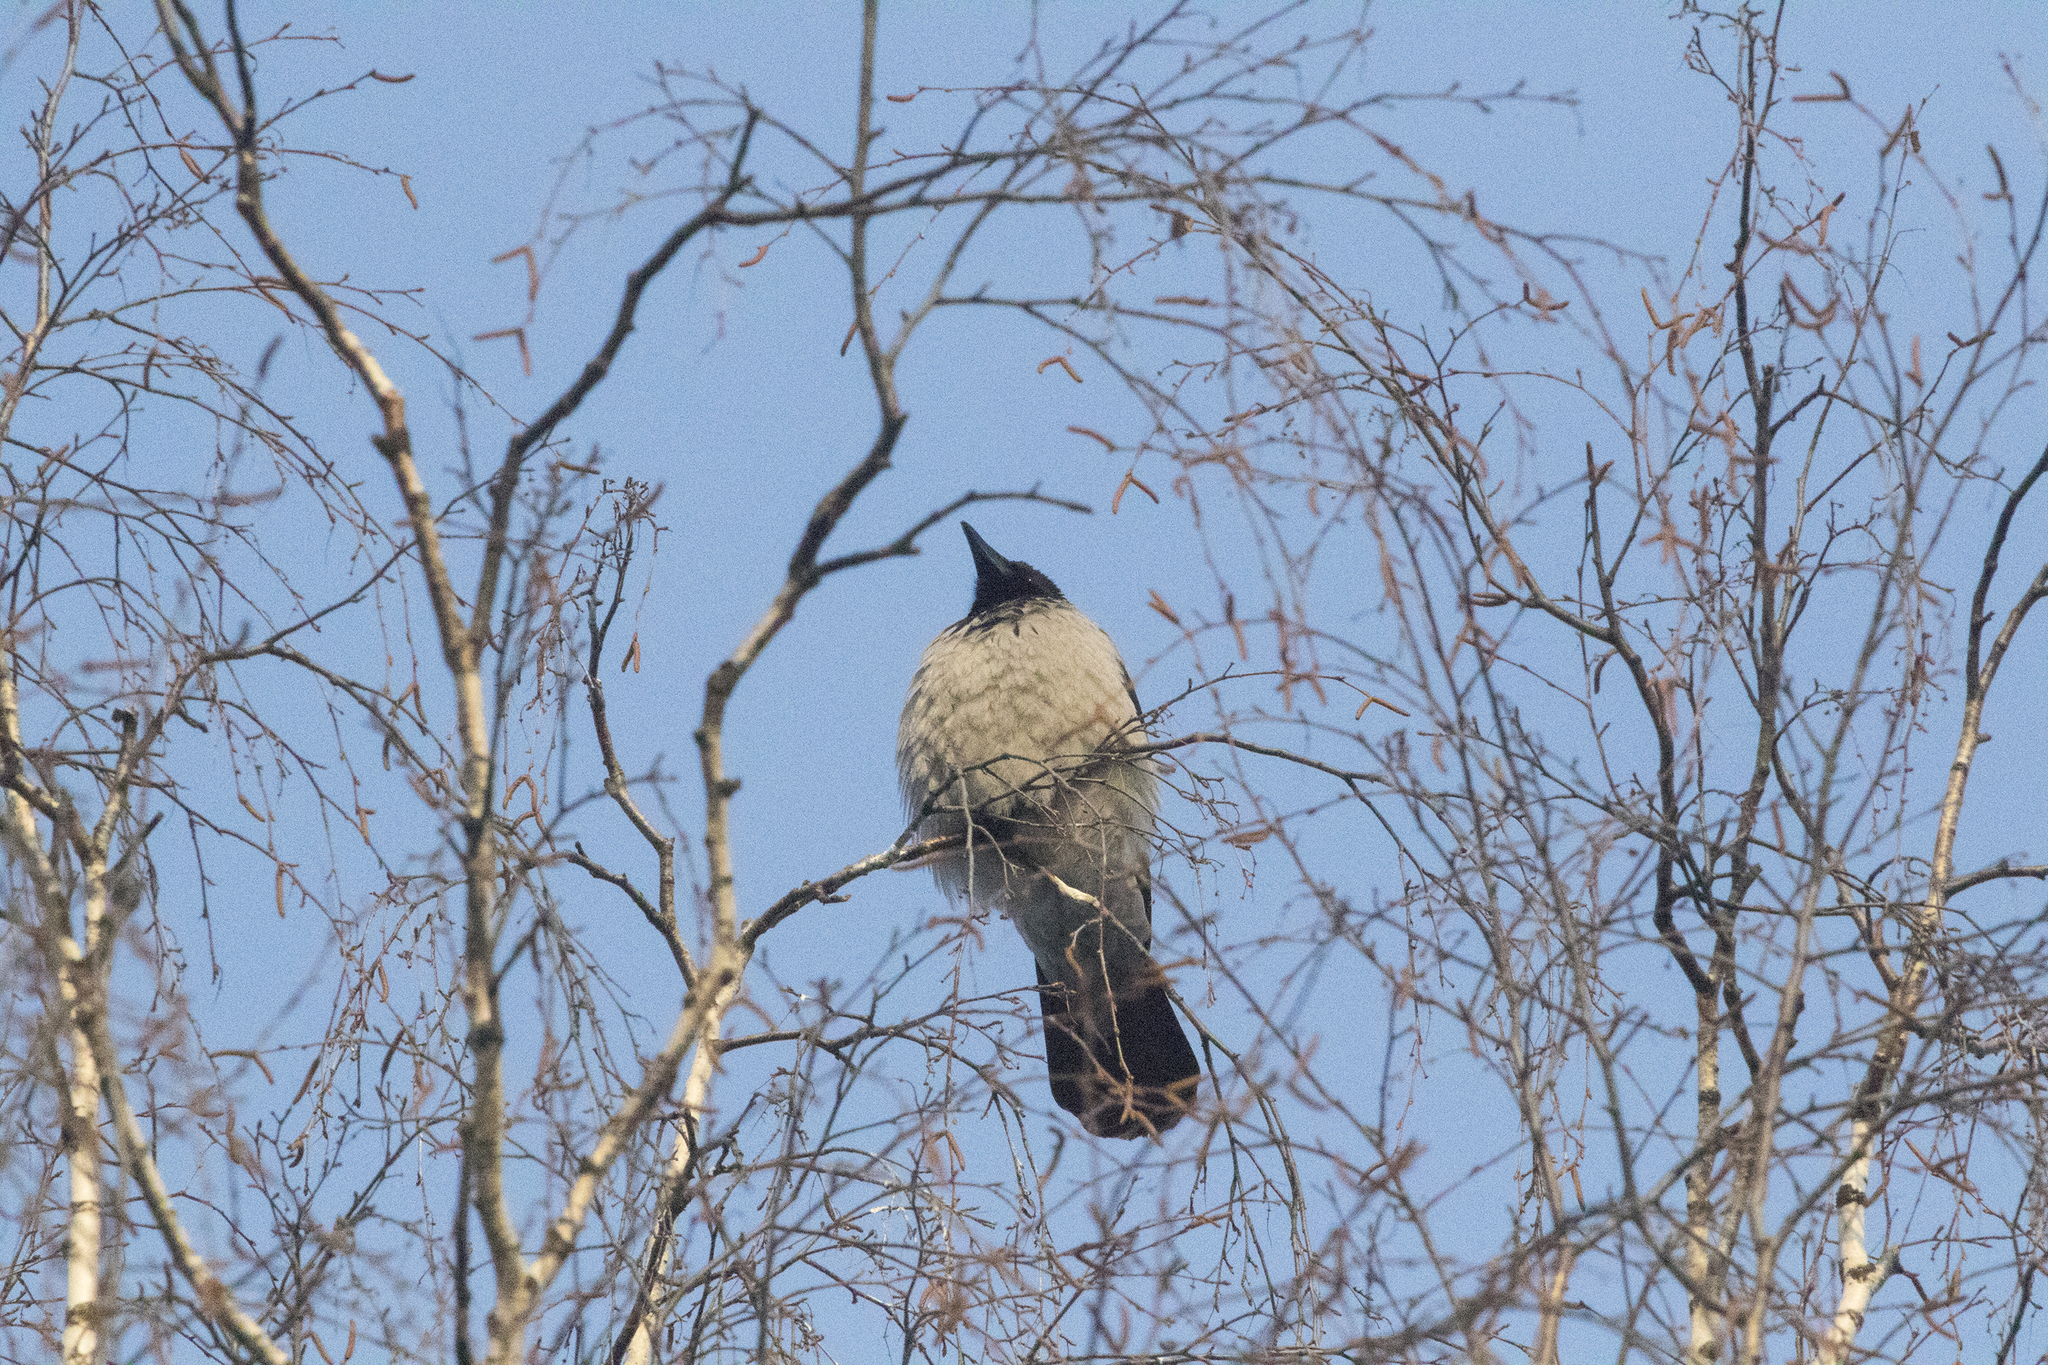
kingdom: Animalia
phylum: Chordata
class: Aves
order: Passeriformes
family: Corvidae
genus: Corvus
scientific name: Corvus cornix
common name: Hooded crow
